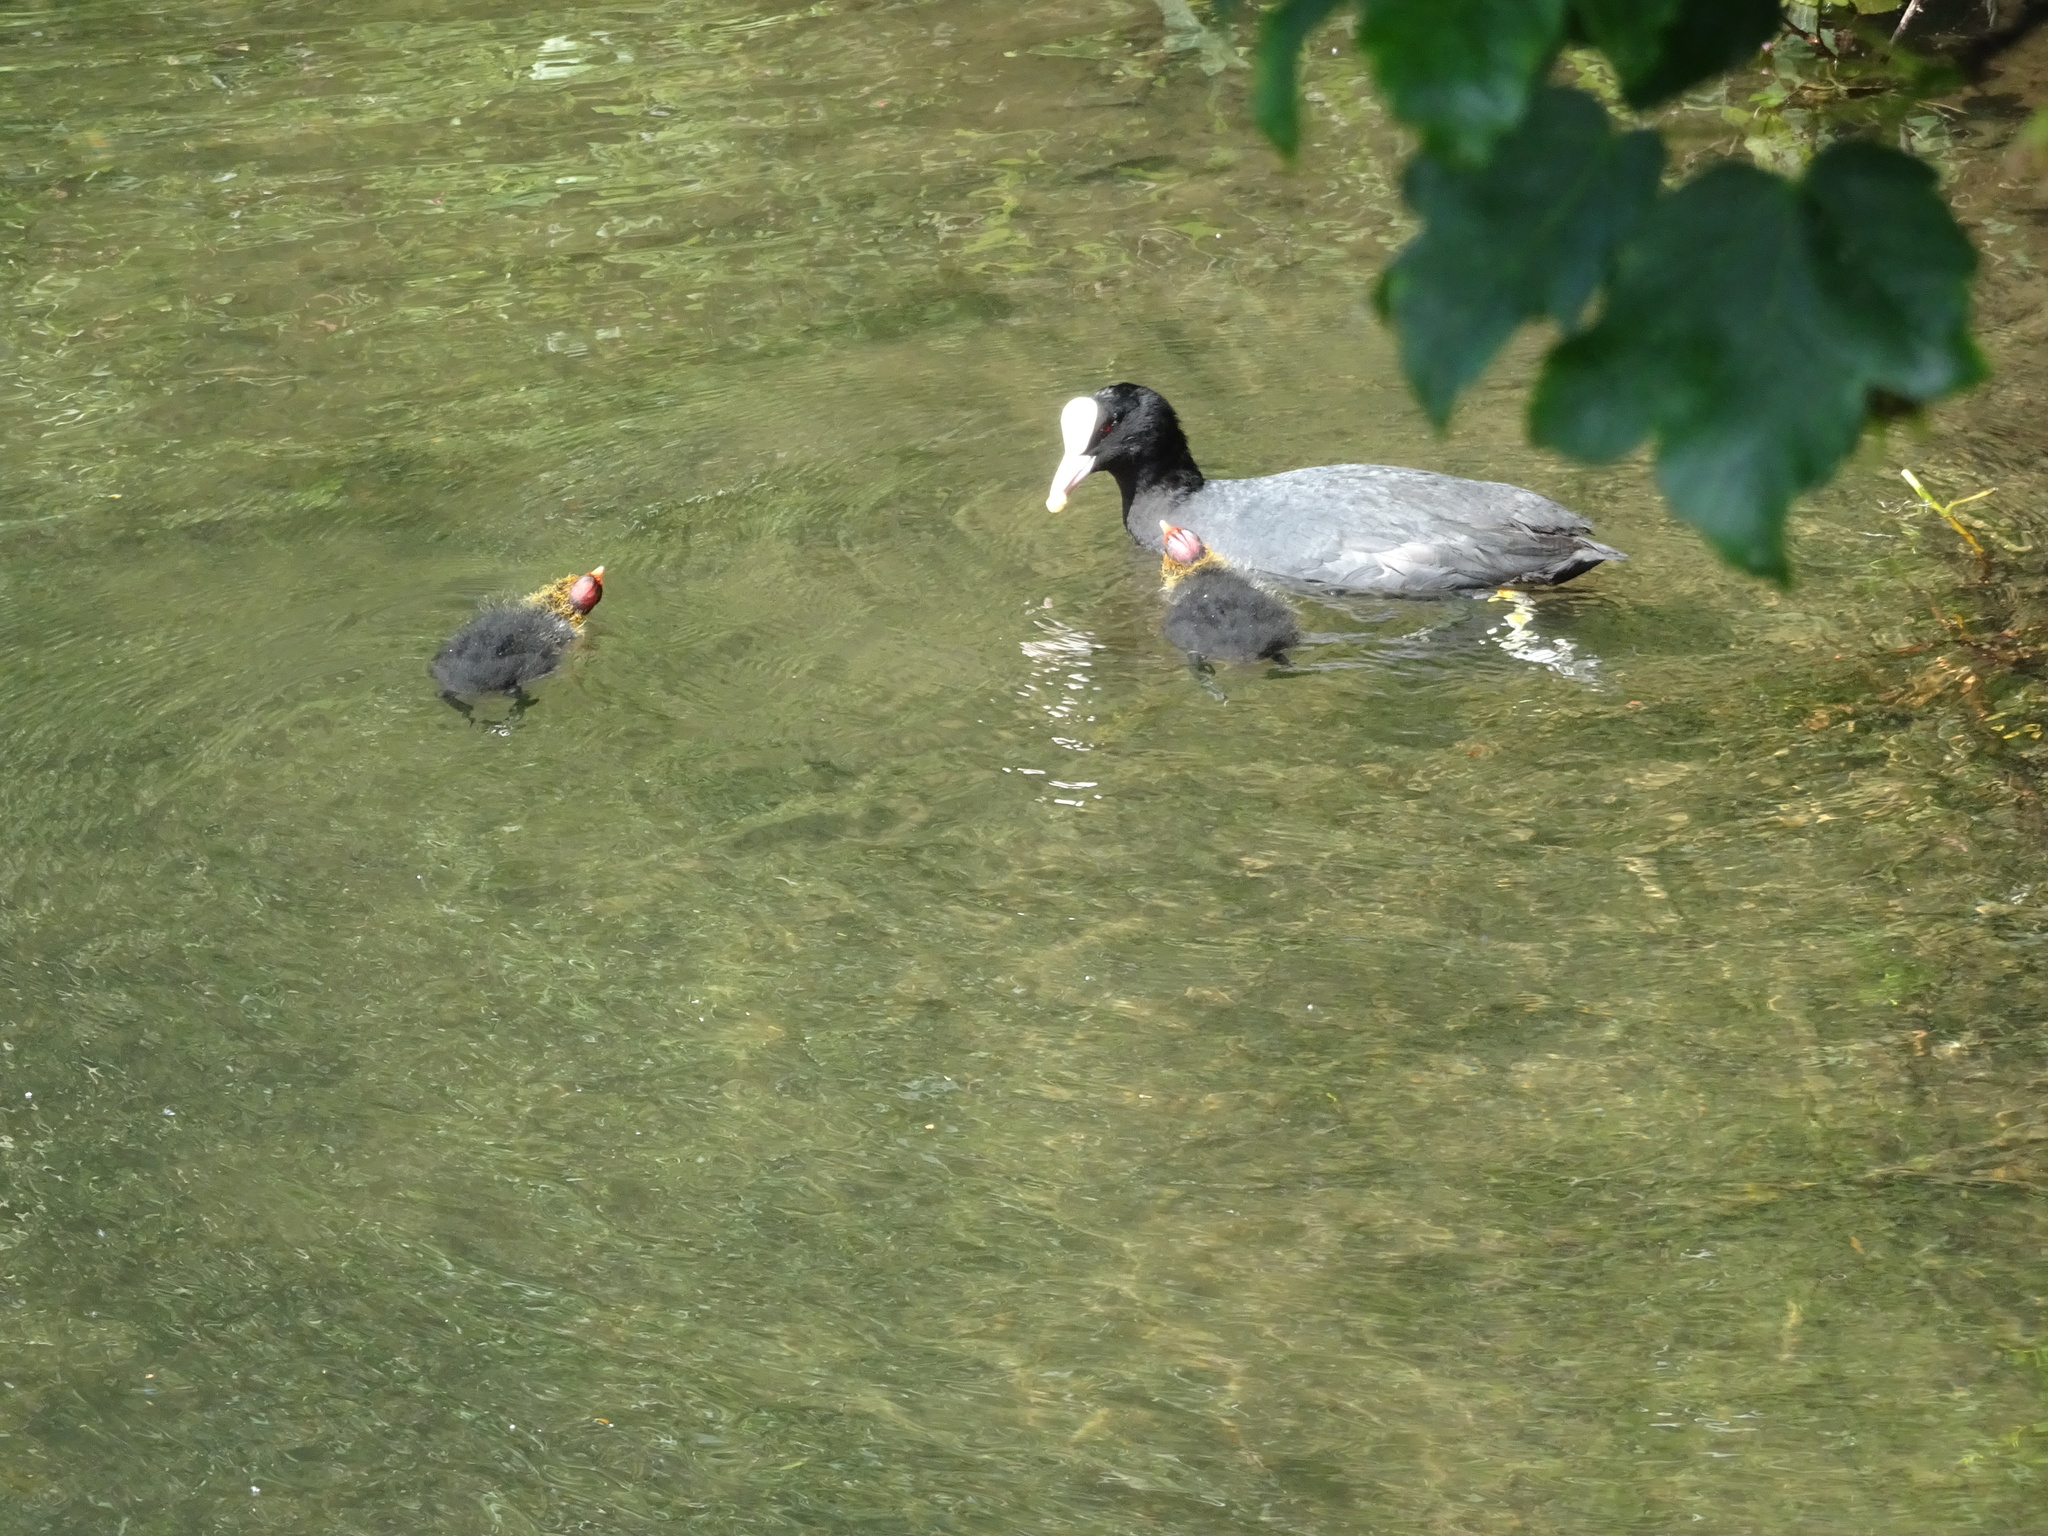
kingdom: Animalia
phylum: Chordata
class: Aves
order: Gruiformes
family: Rallidae
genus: Fulica
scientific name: Fulica atra
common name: Eurasian coot
